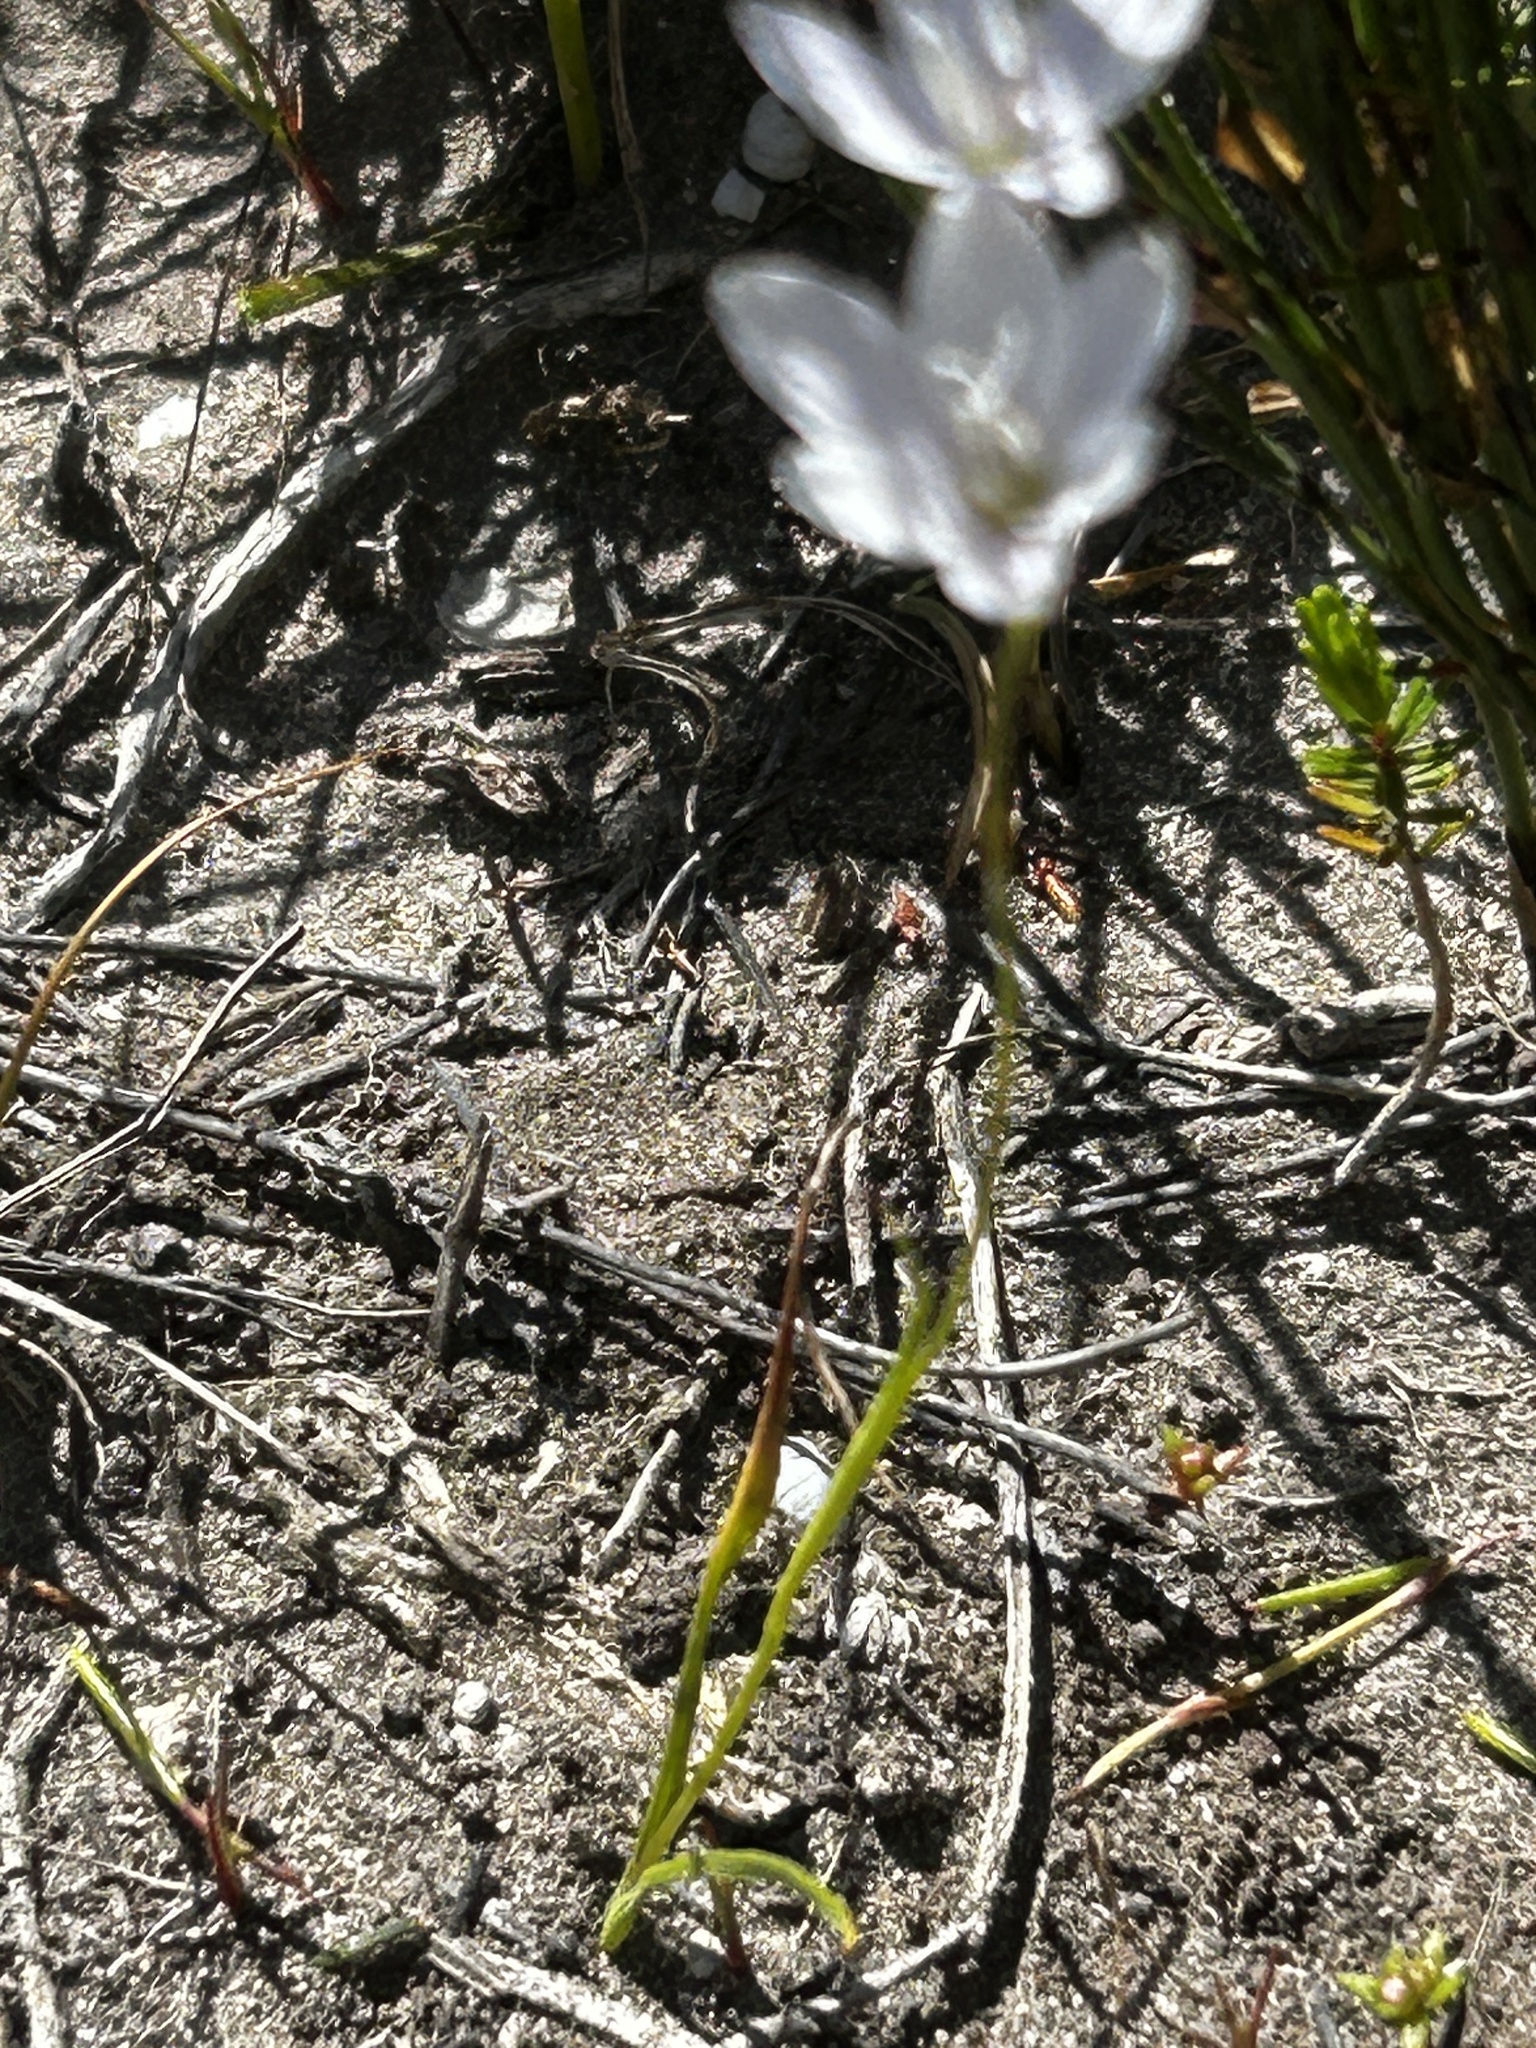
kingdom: Plantae
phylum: Tracheophyta
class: Liliopsida
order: Asparagales
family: Iridaceae
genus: Geissorhiza
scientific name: Geissorhiza aspera
